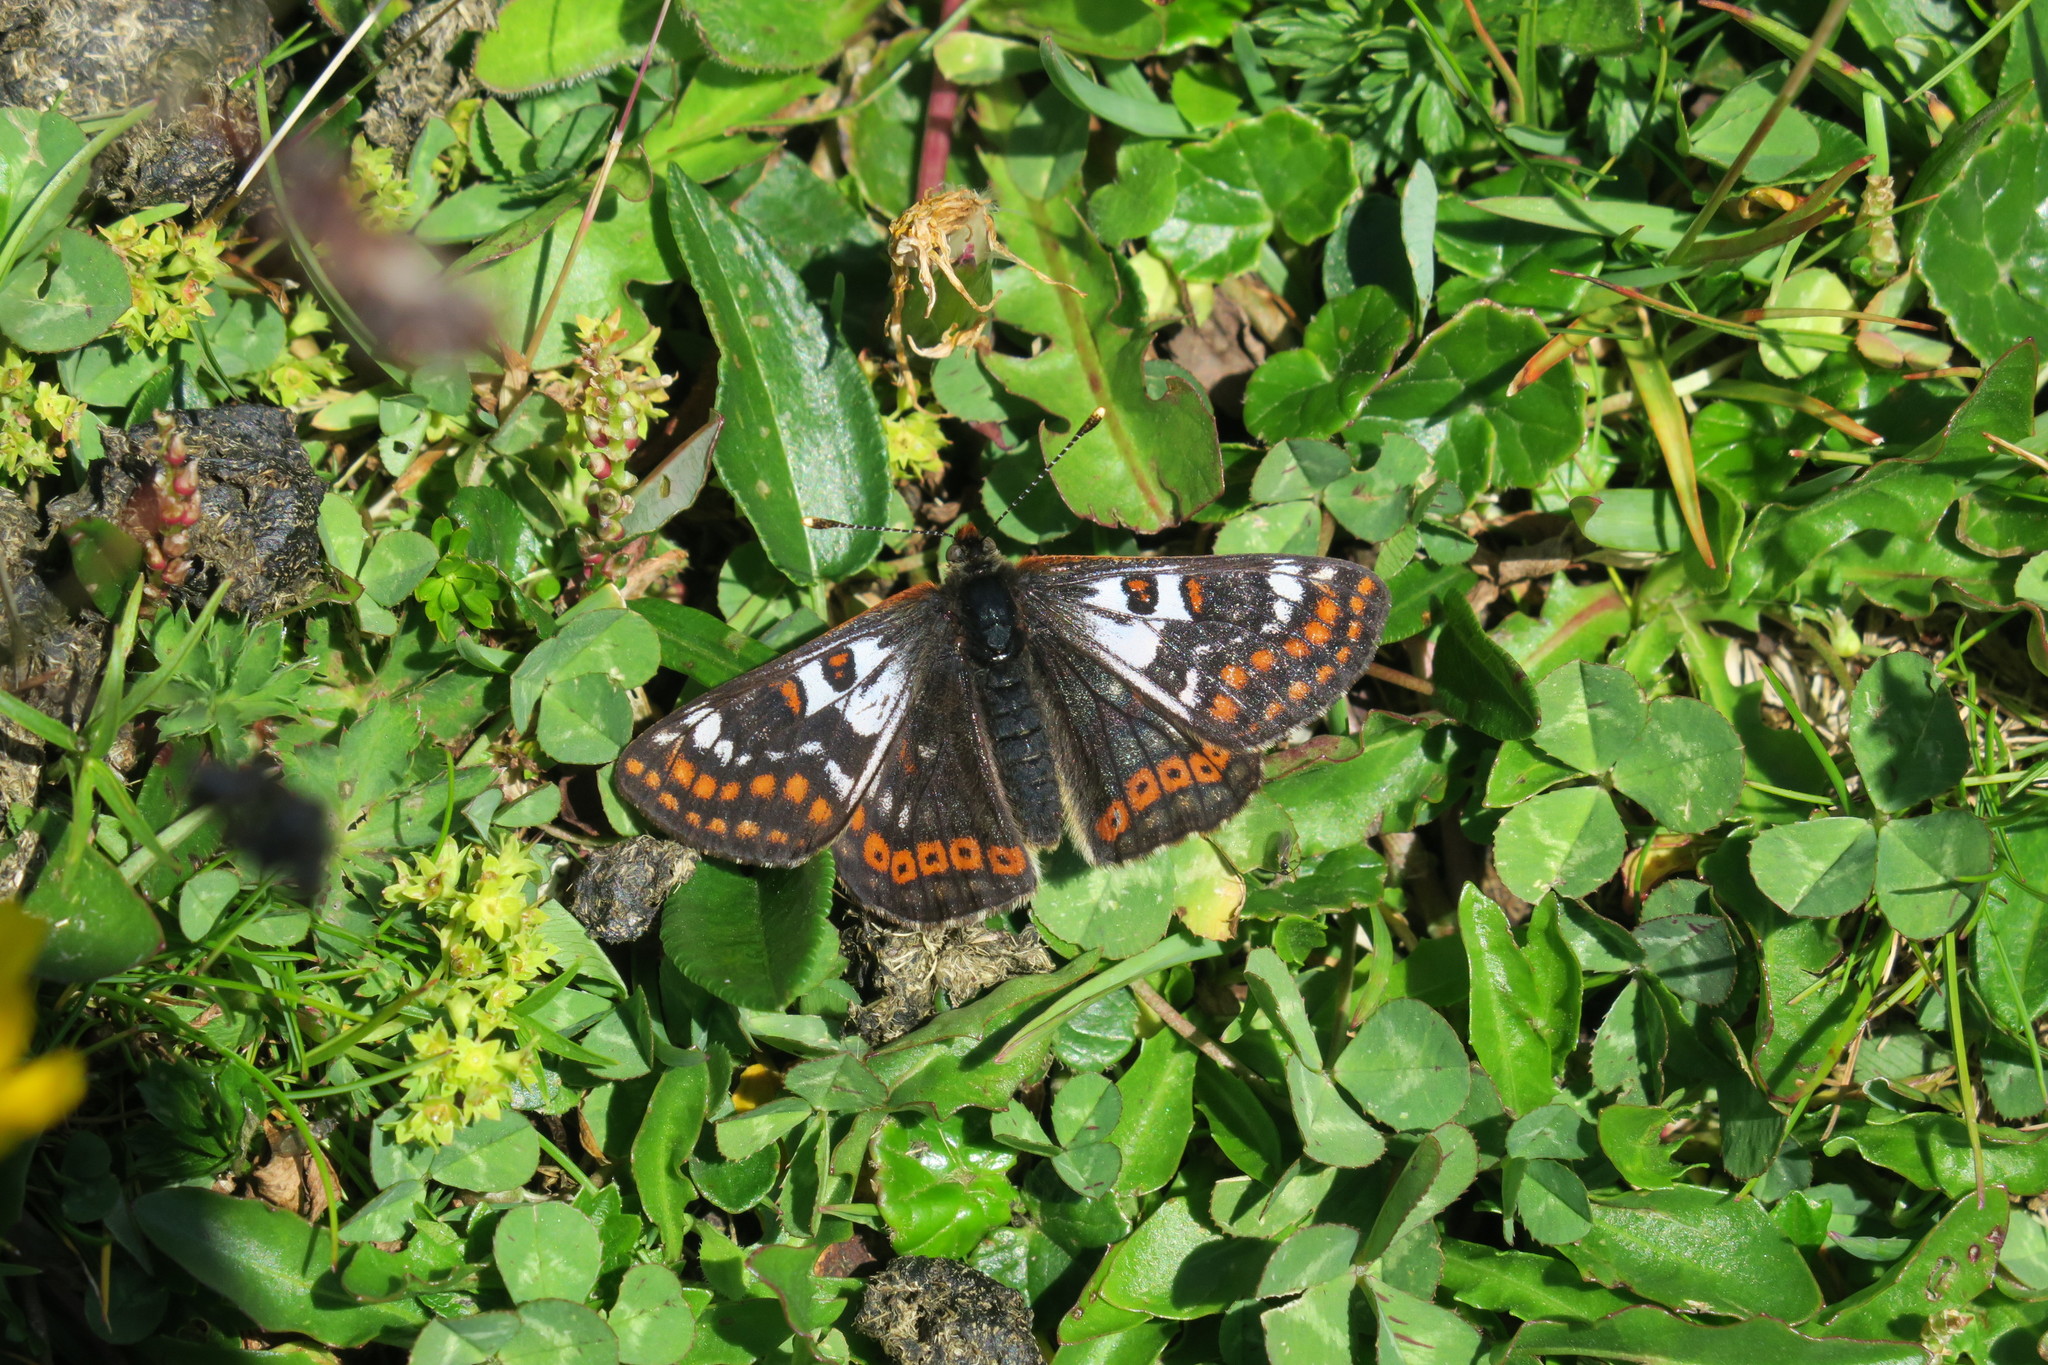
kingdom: Animalia
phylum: Arthropoda
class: Insecta
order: Lepidoptera
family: Nymphalidae
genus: Hypodryas
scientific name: Hypodryas cynthia
